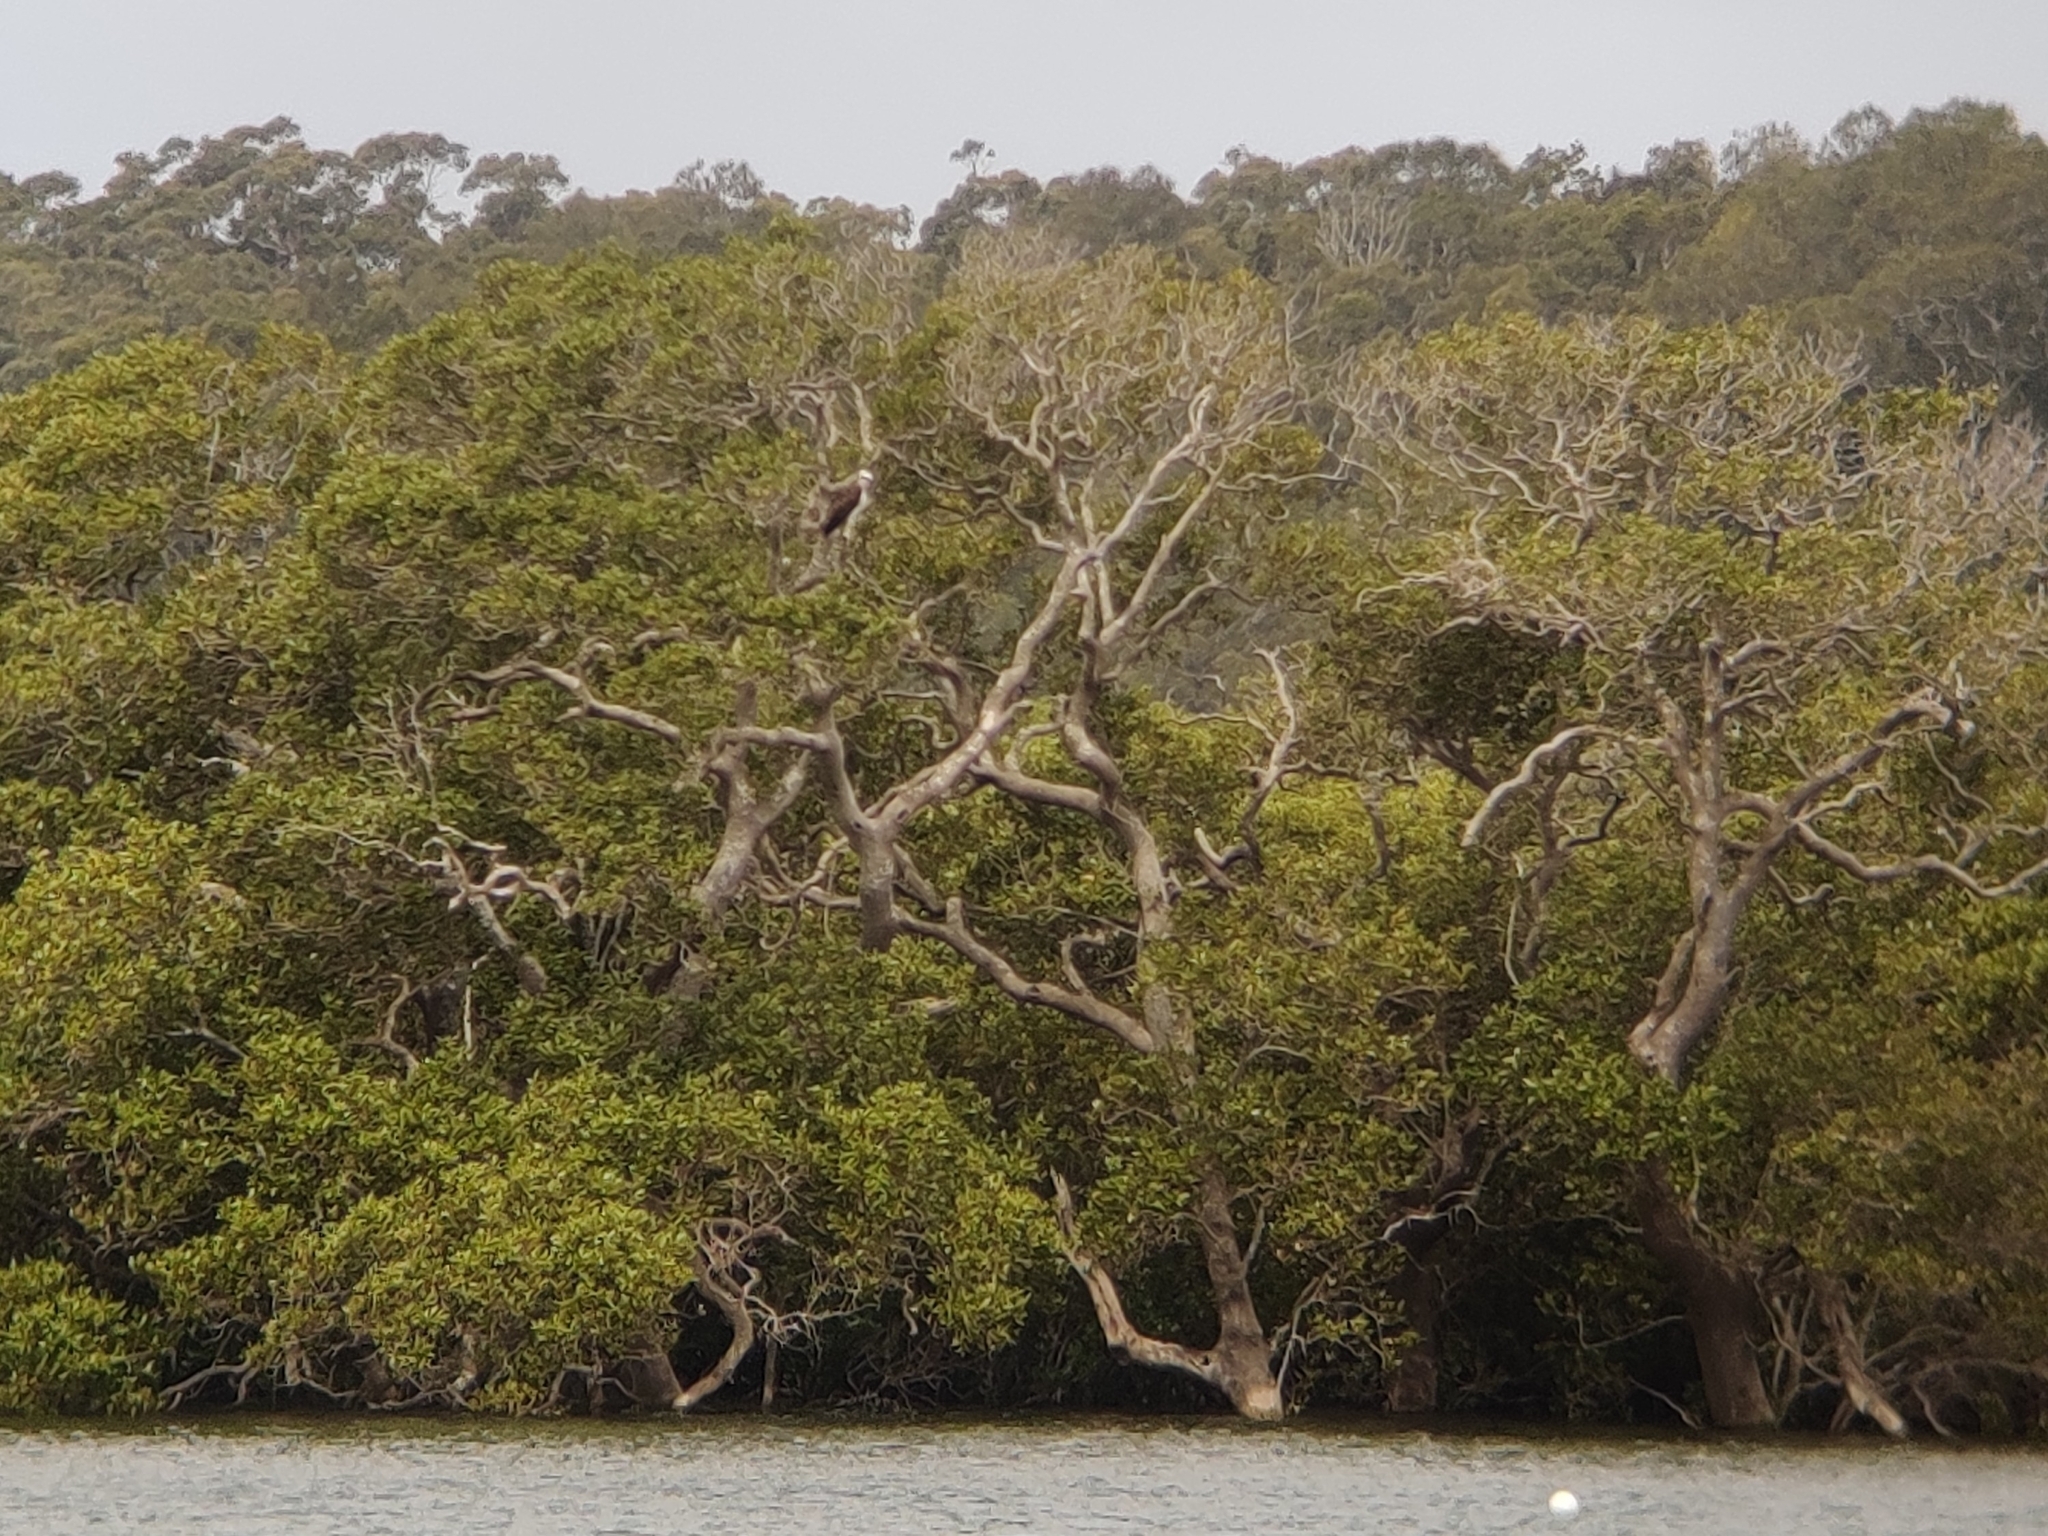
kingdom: Animalia
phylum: Chordata
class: Aves
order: Accipitriformes
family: Pandionidae
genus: Pandion
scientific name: Pandion cristatus
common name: Eastern osprey
